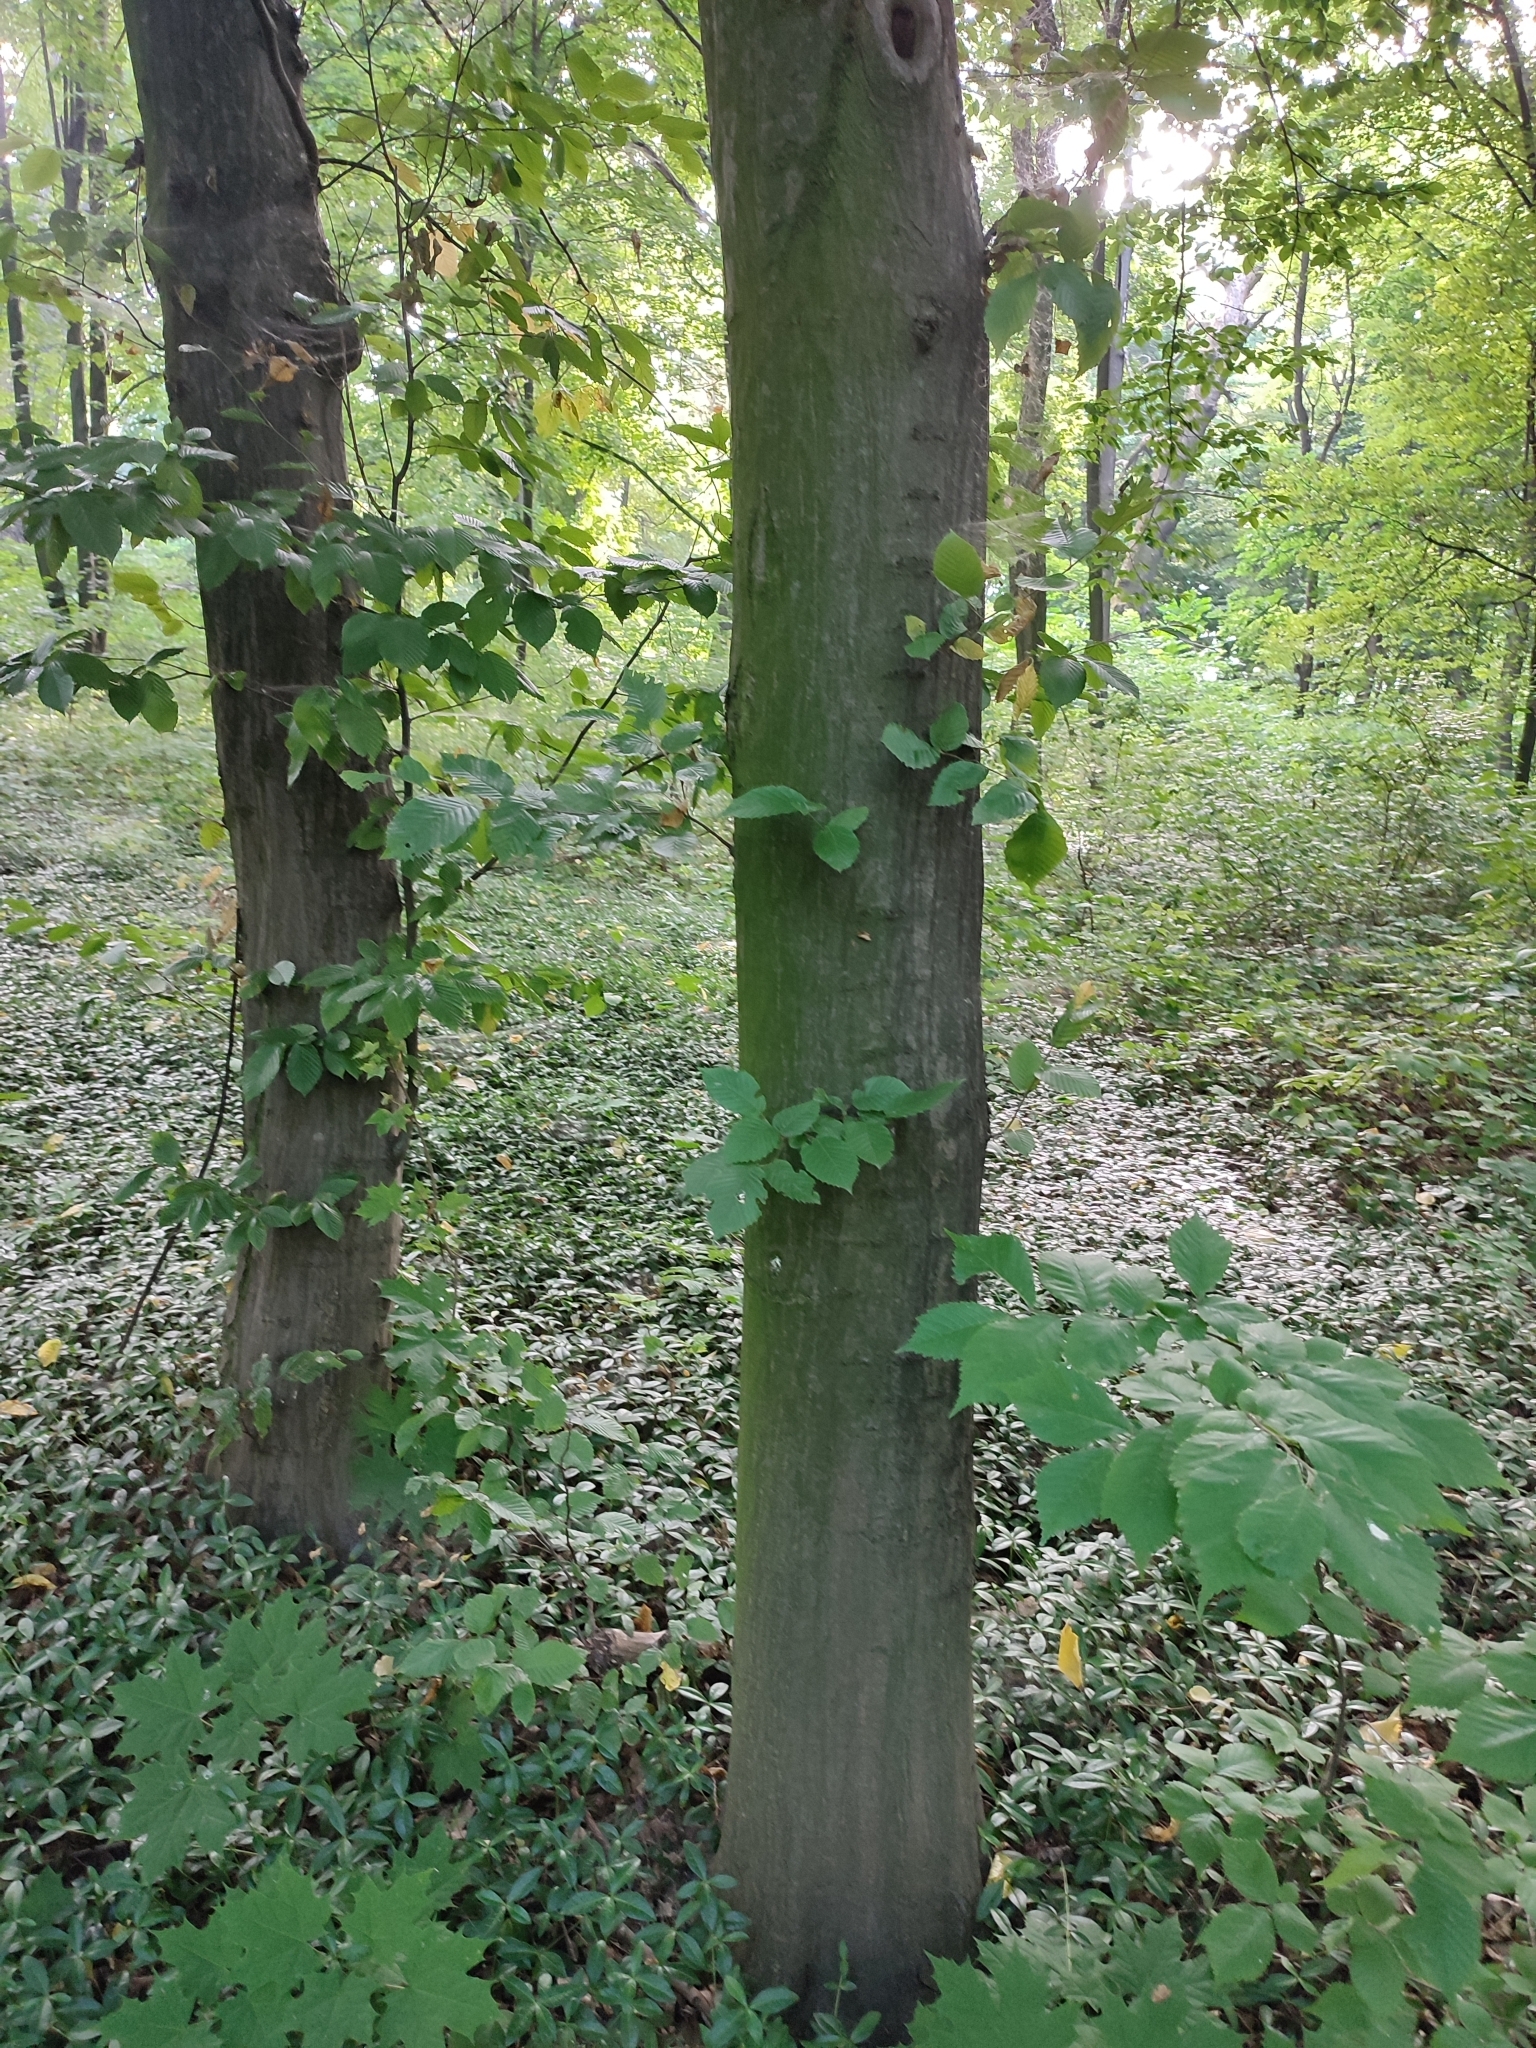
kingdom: Plantae
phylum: Tracheophyta
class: Magnoliopsida
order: Fagales
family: Betulaceae
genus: Carpinus
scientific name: Carpinus betulus
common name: Hornbeam
